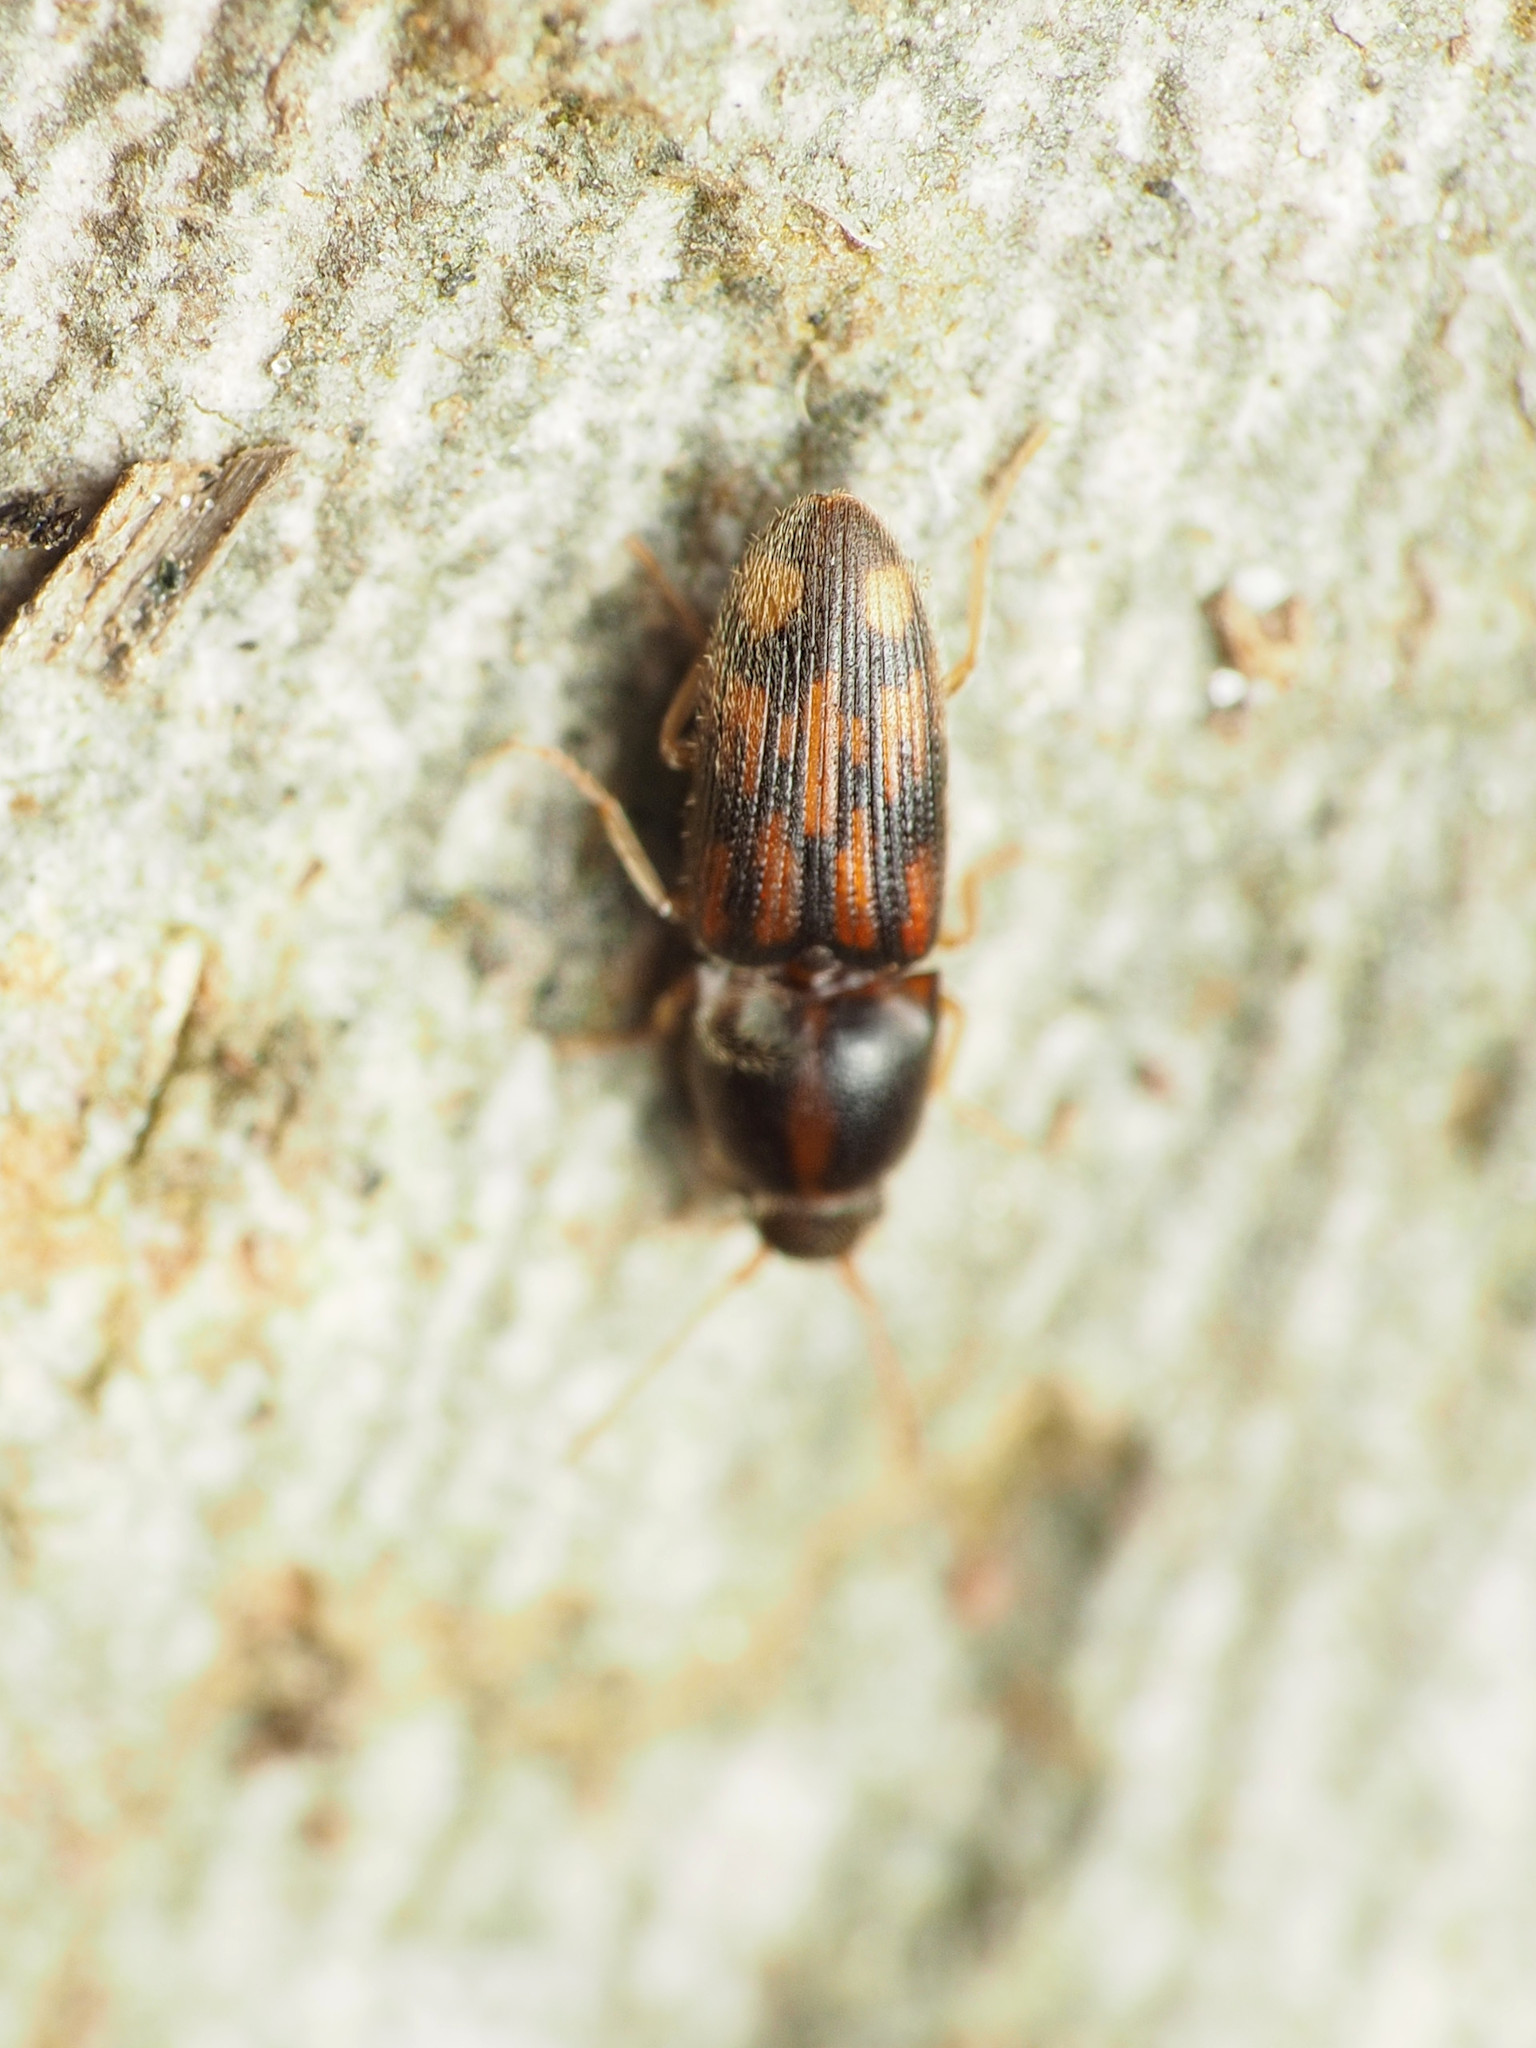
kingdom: Animalia
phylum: Arthropoda
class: Insecta
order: Coleoptera
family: Elateridae
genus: Monocrepidius
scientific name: Monocrepidius bellus
